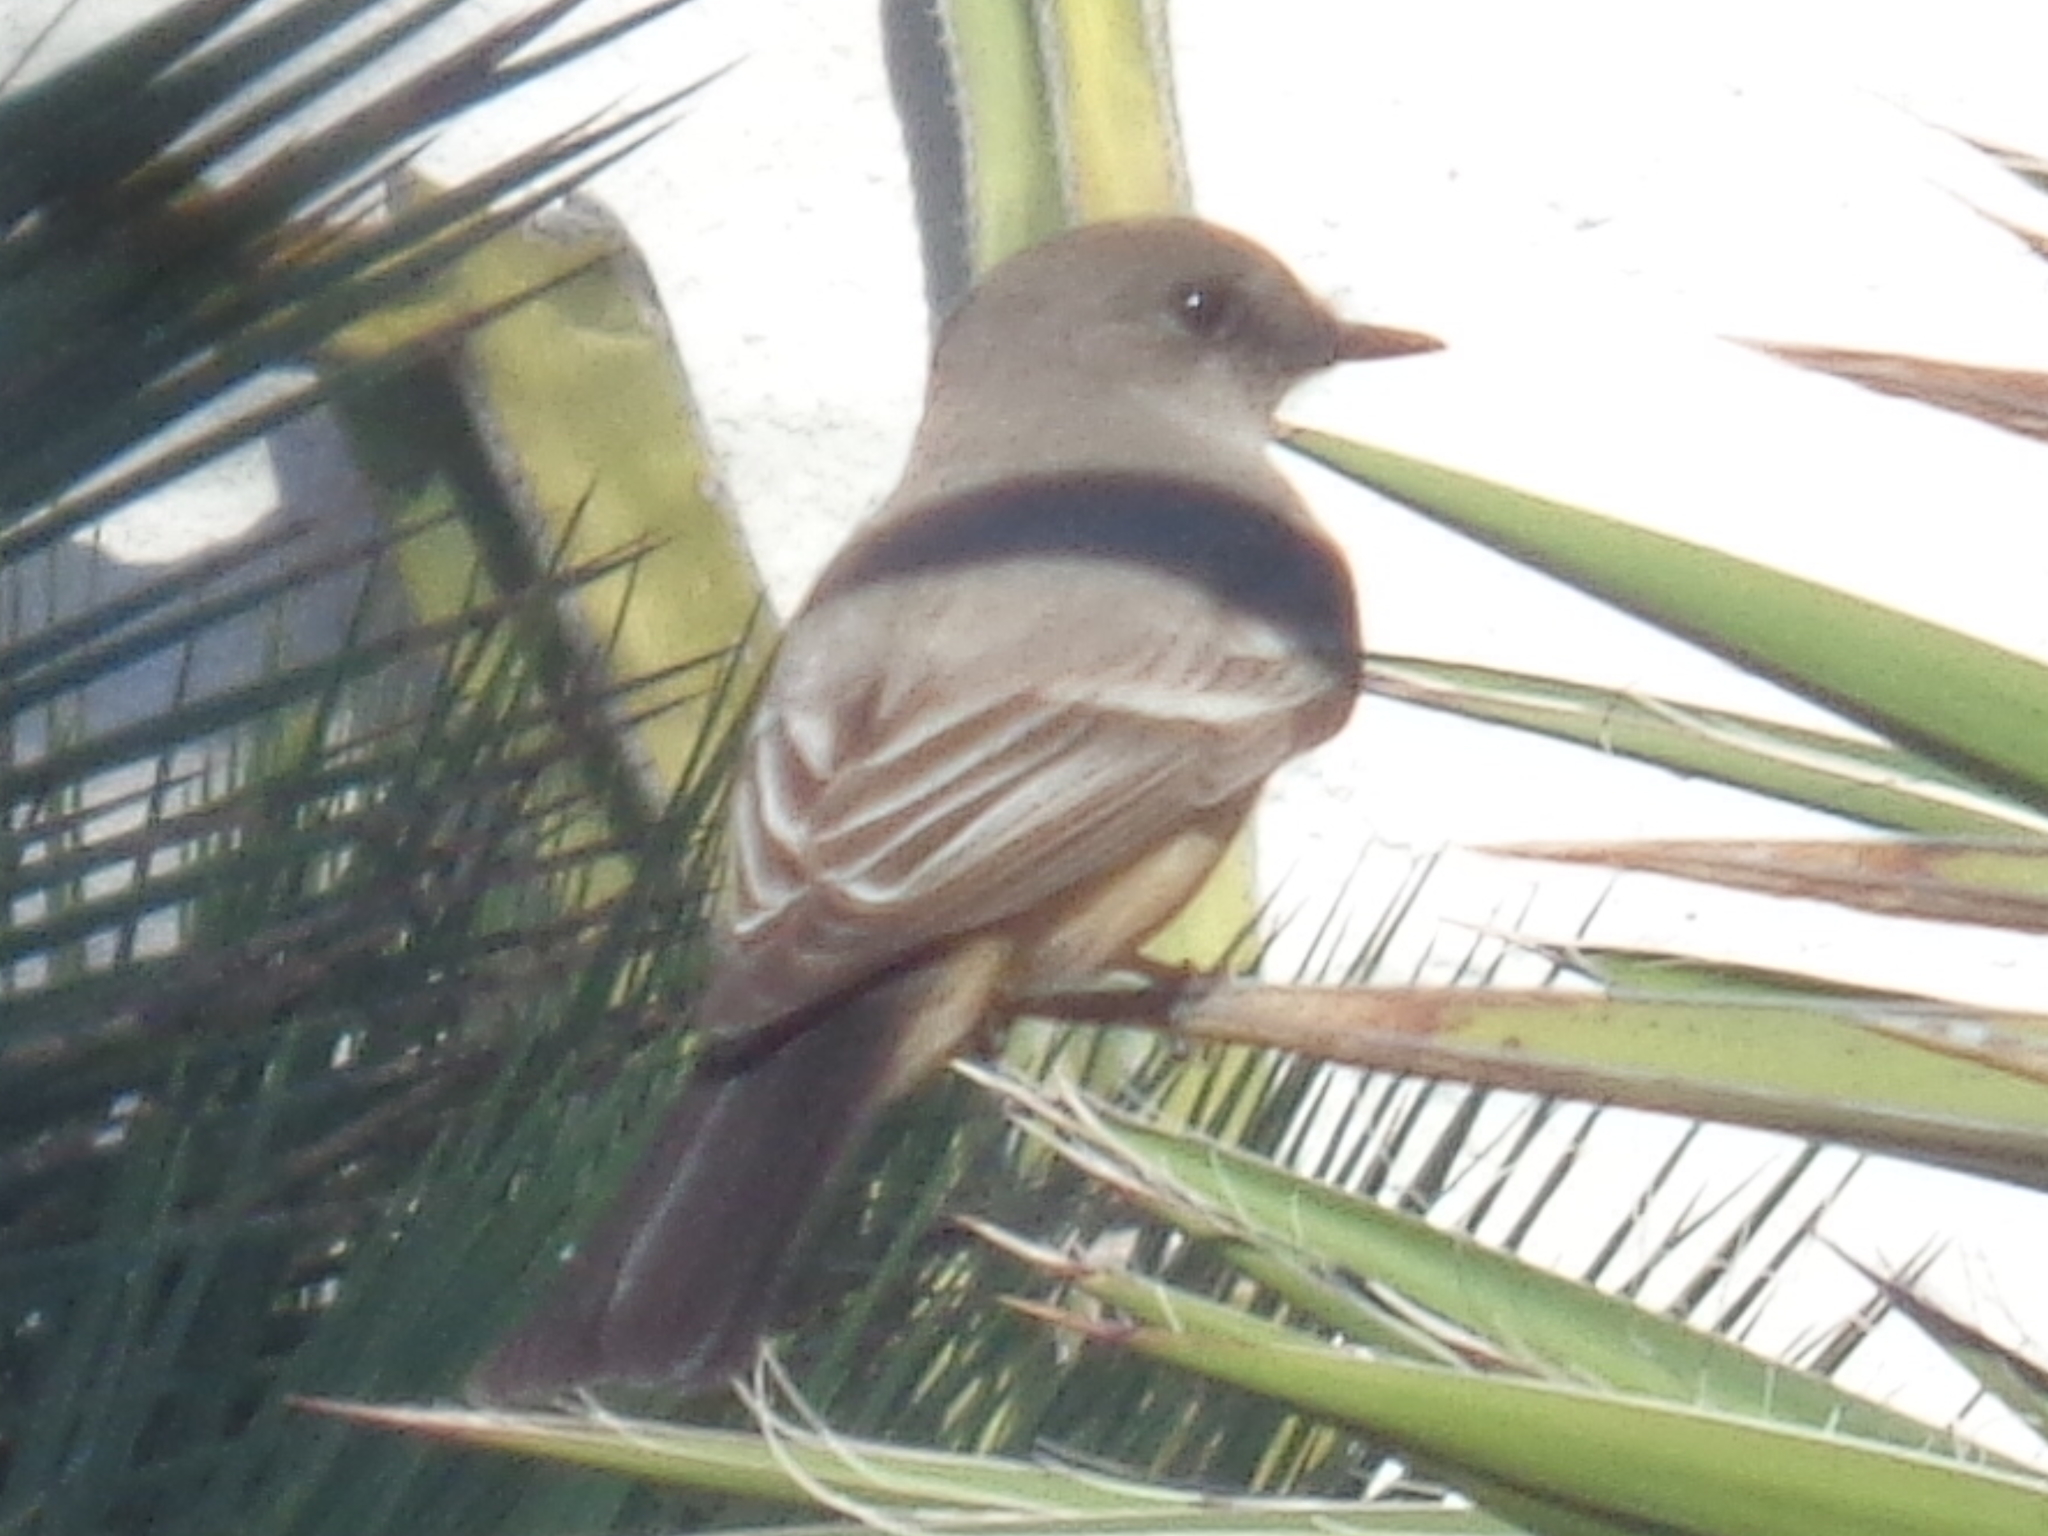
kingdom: Animalia
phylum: Chordata
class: Aves
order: Passeriformes
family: Tyrannidae
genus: Sayornis
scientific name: Sayornis saya
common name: Say's phoebe
